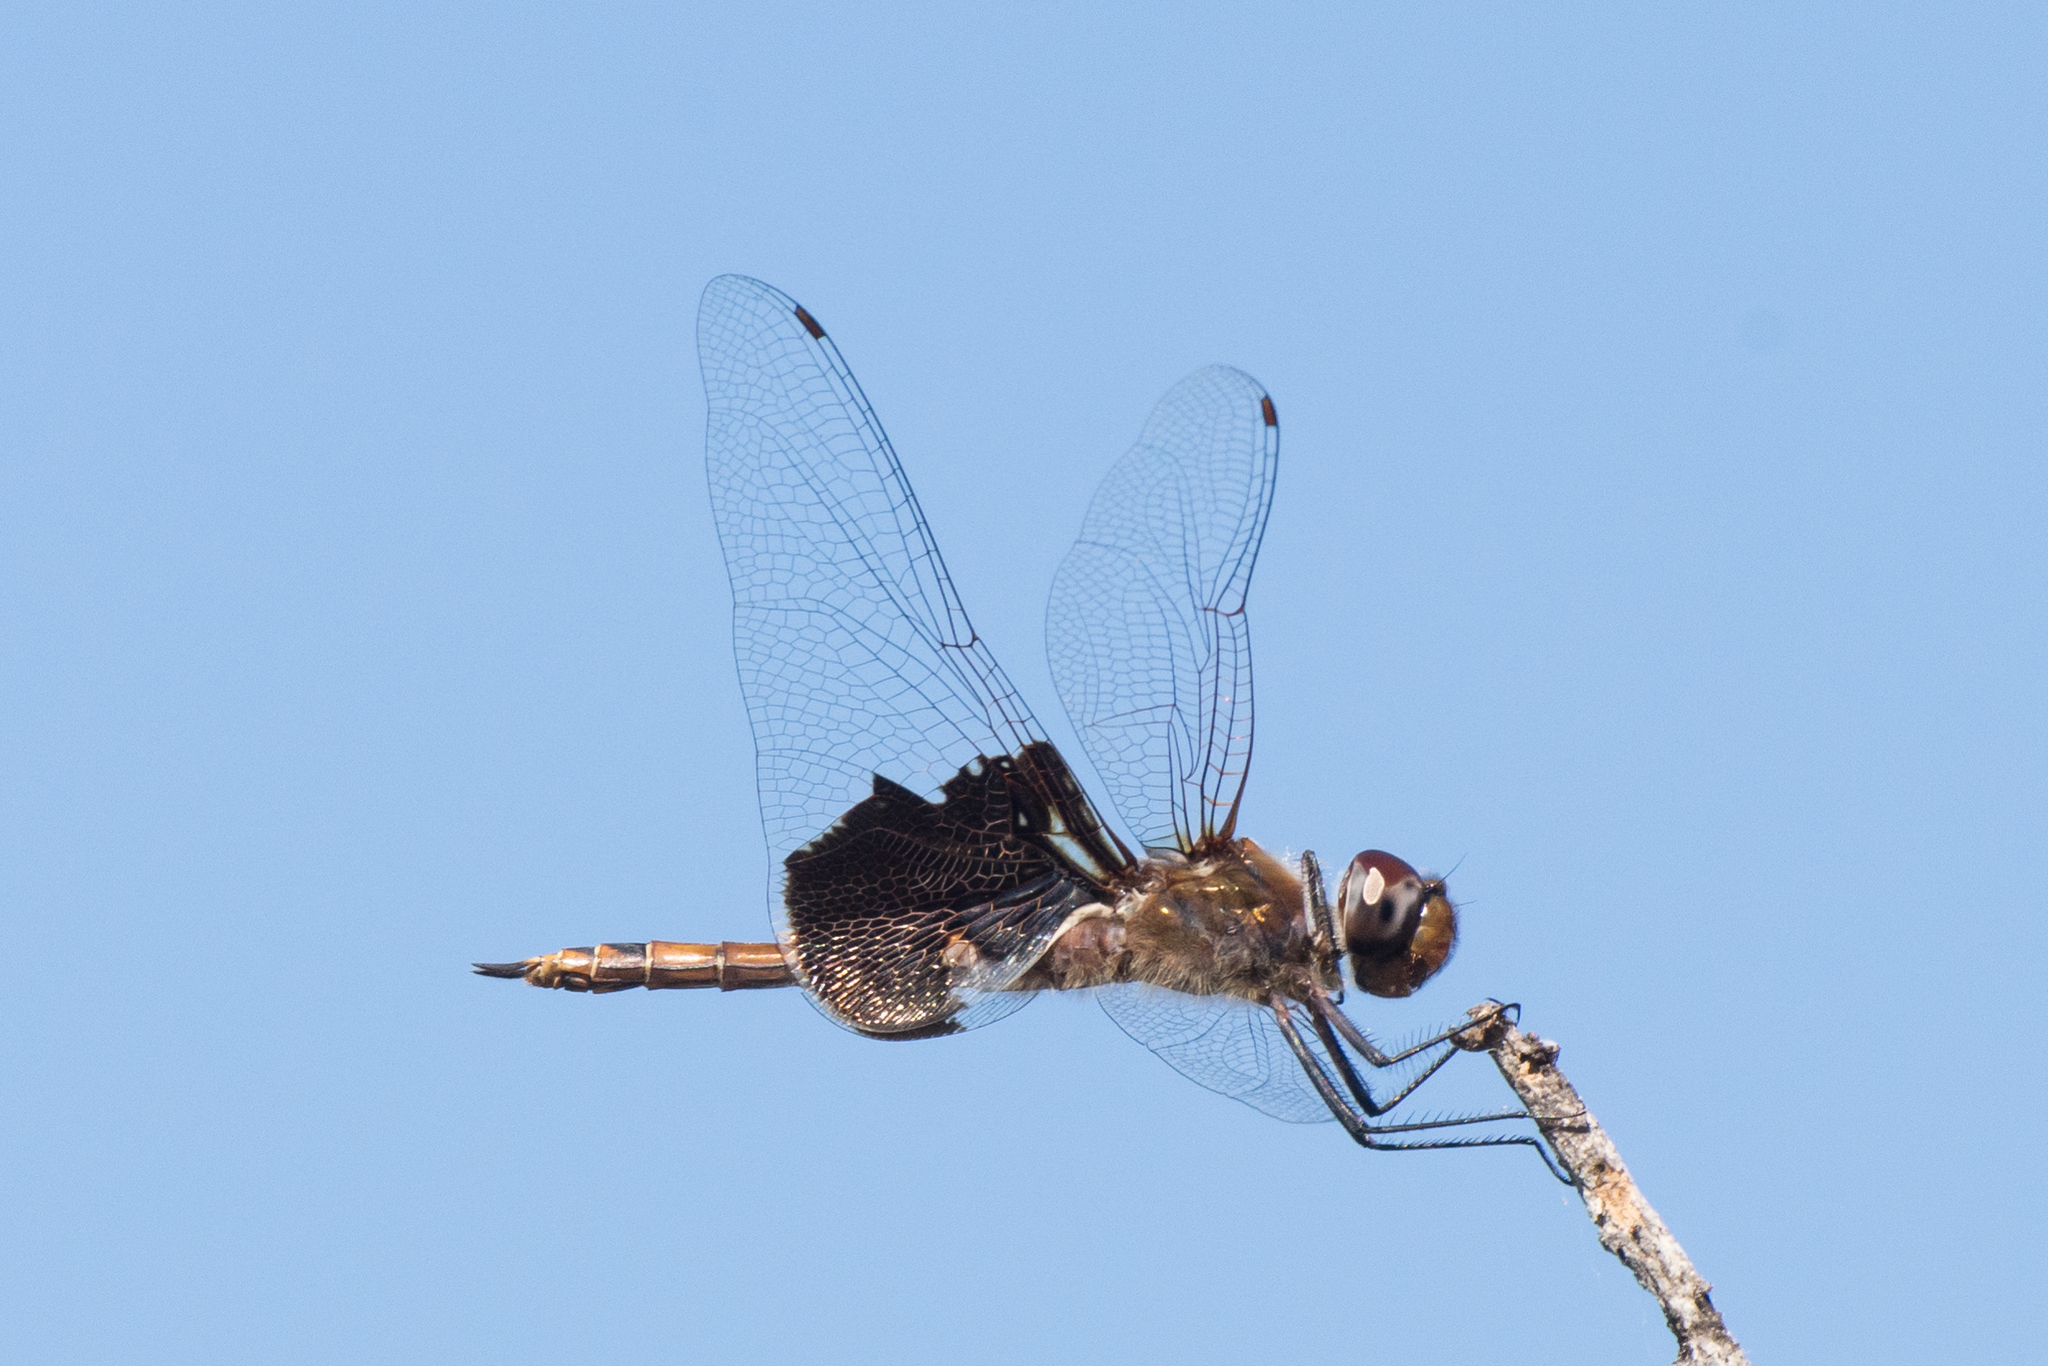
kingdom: Animalia
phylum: Arthropoda
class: Insecta
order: Odonata
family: Libellulidae
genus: Tramea
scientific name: Tramea onusta
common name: Red saddlebags
